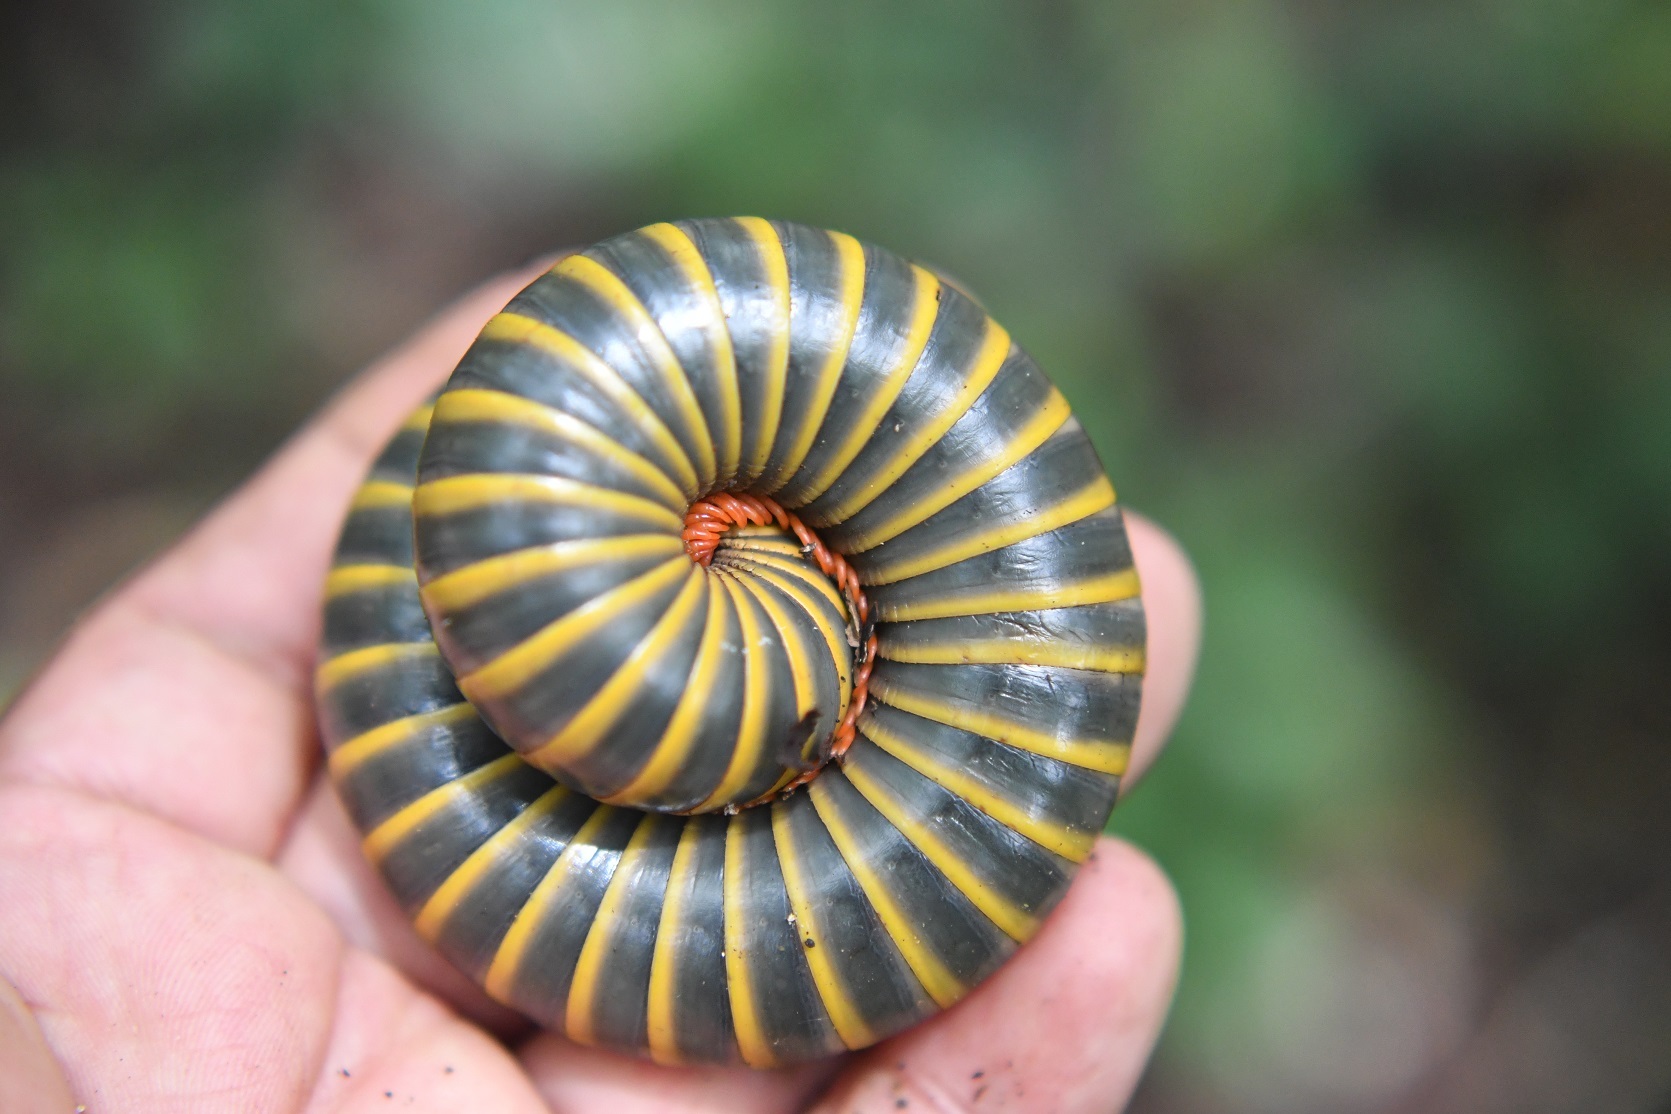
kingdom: Animalia
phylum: Arthropoda
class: Diplopoda
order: Spirobolida
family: Messicobolidae
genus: Messicobolus
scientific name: Messicobolus magnificus
